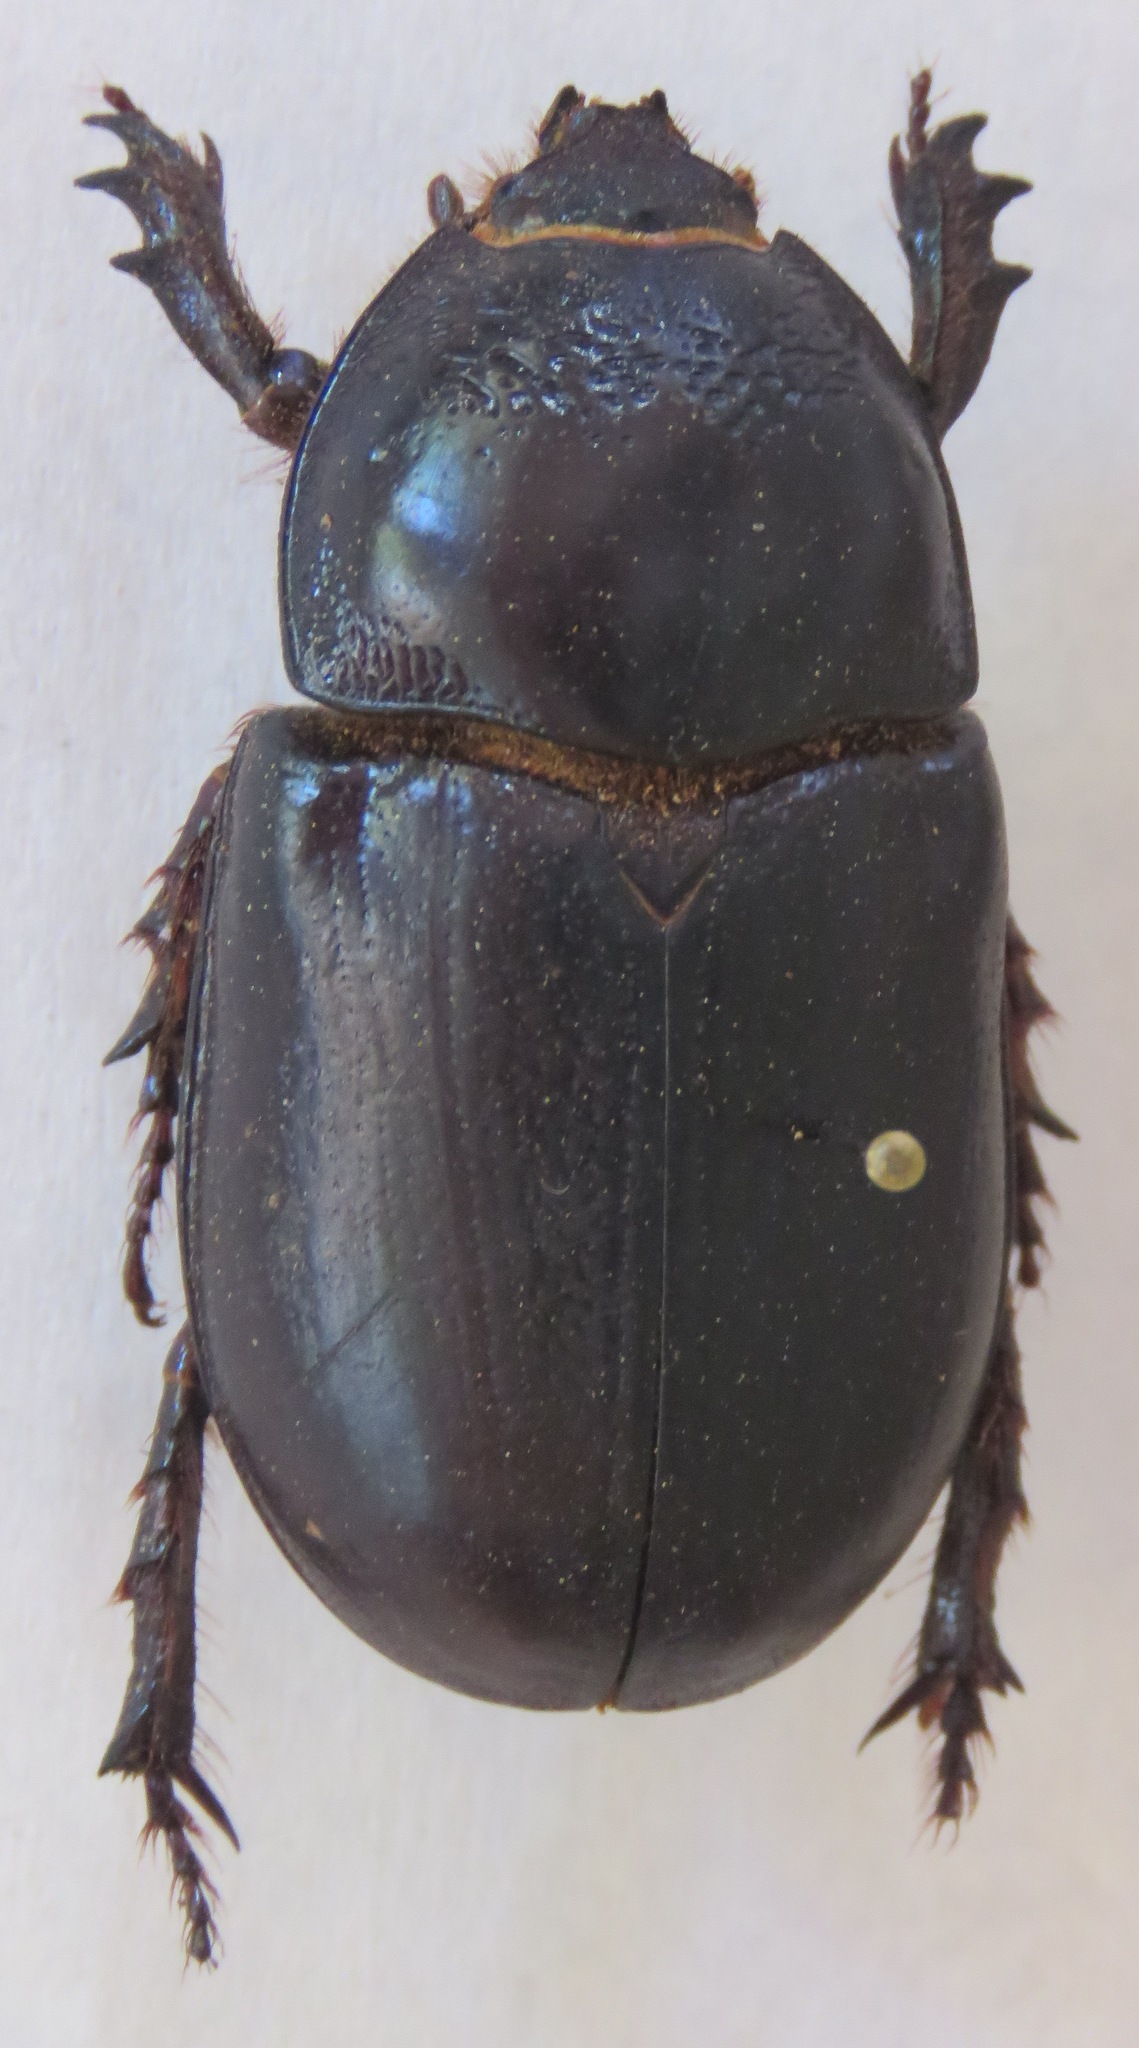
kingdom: Animalia
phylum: Arthropoda
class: Insecta
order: Coleoptera
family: Scarabaeidae
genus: Trichogomphus
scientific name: Trichogomphus martabani
